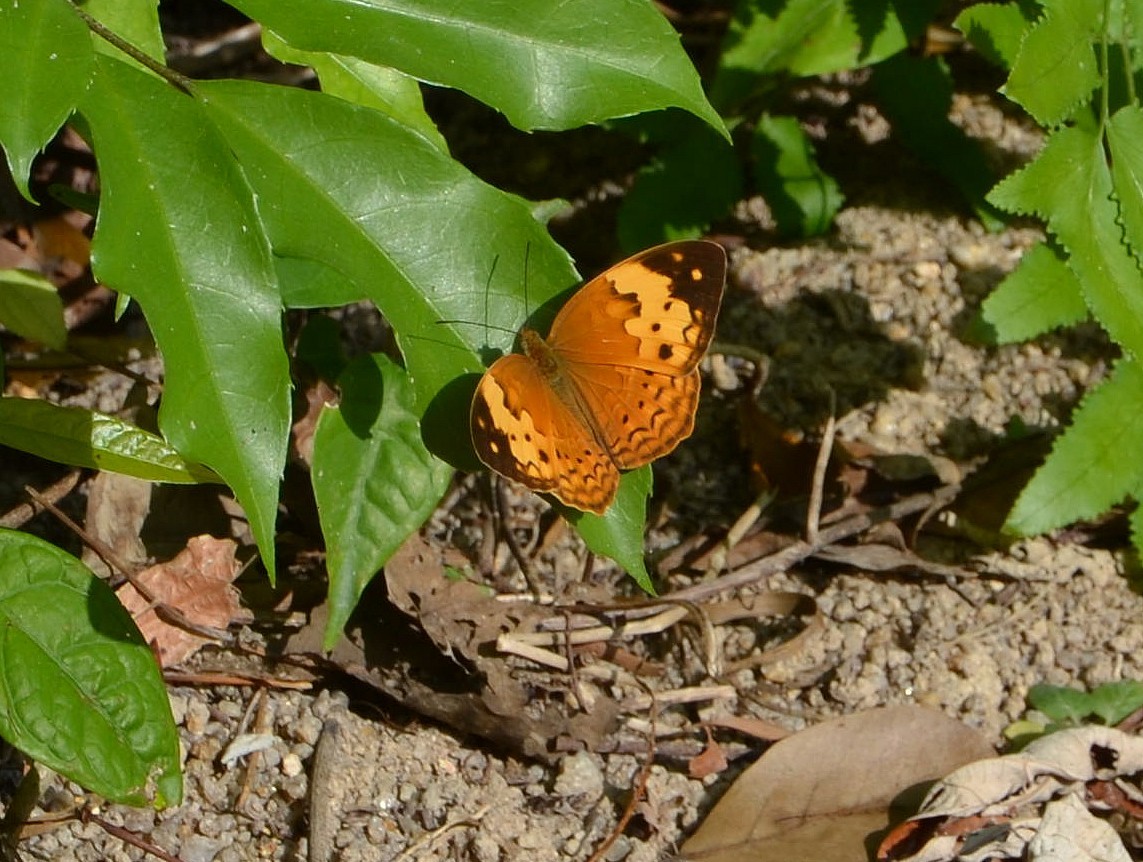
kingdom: Animalia
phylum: Arthropoda
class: Insecta
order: Lepidoptera
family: Nymphalidae
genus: Cupha
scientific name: Cupha erymanthis
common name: Rustic
